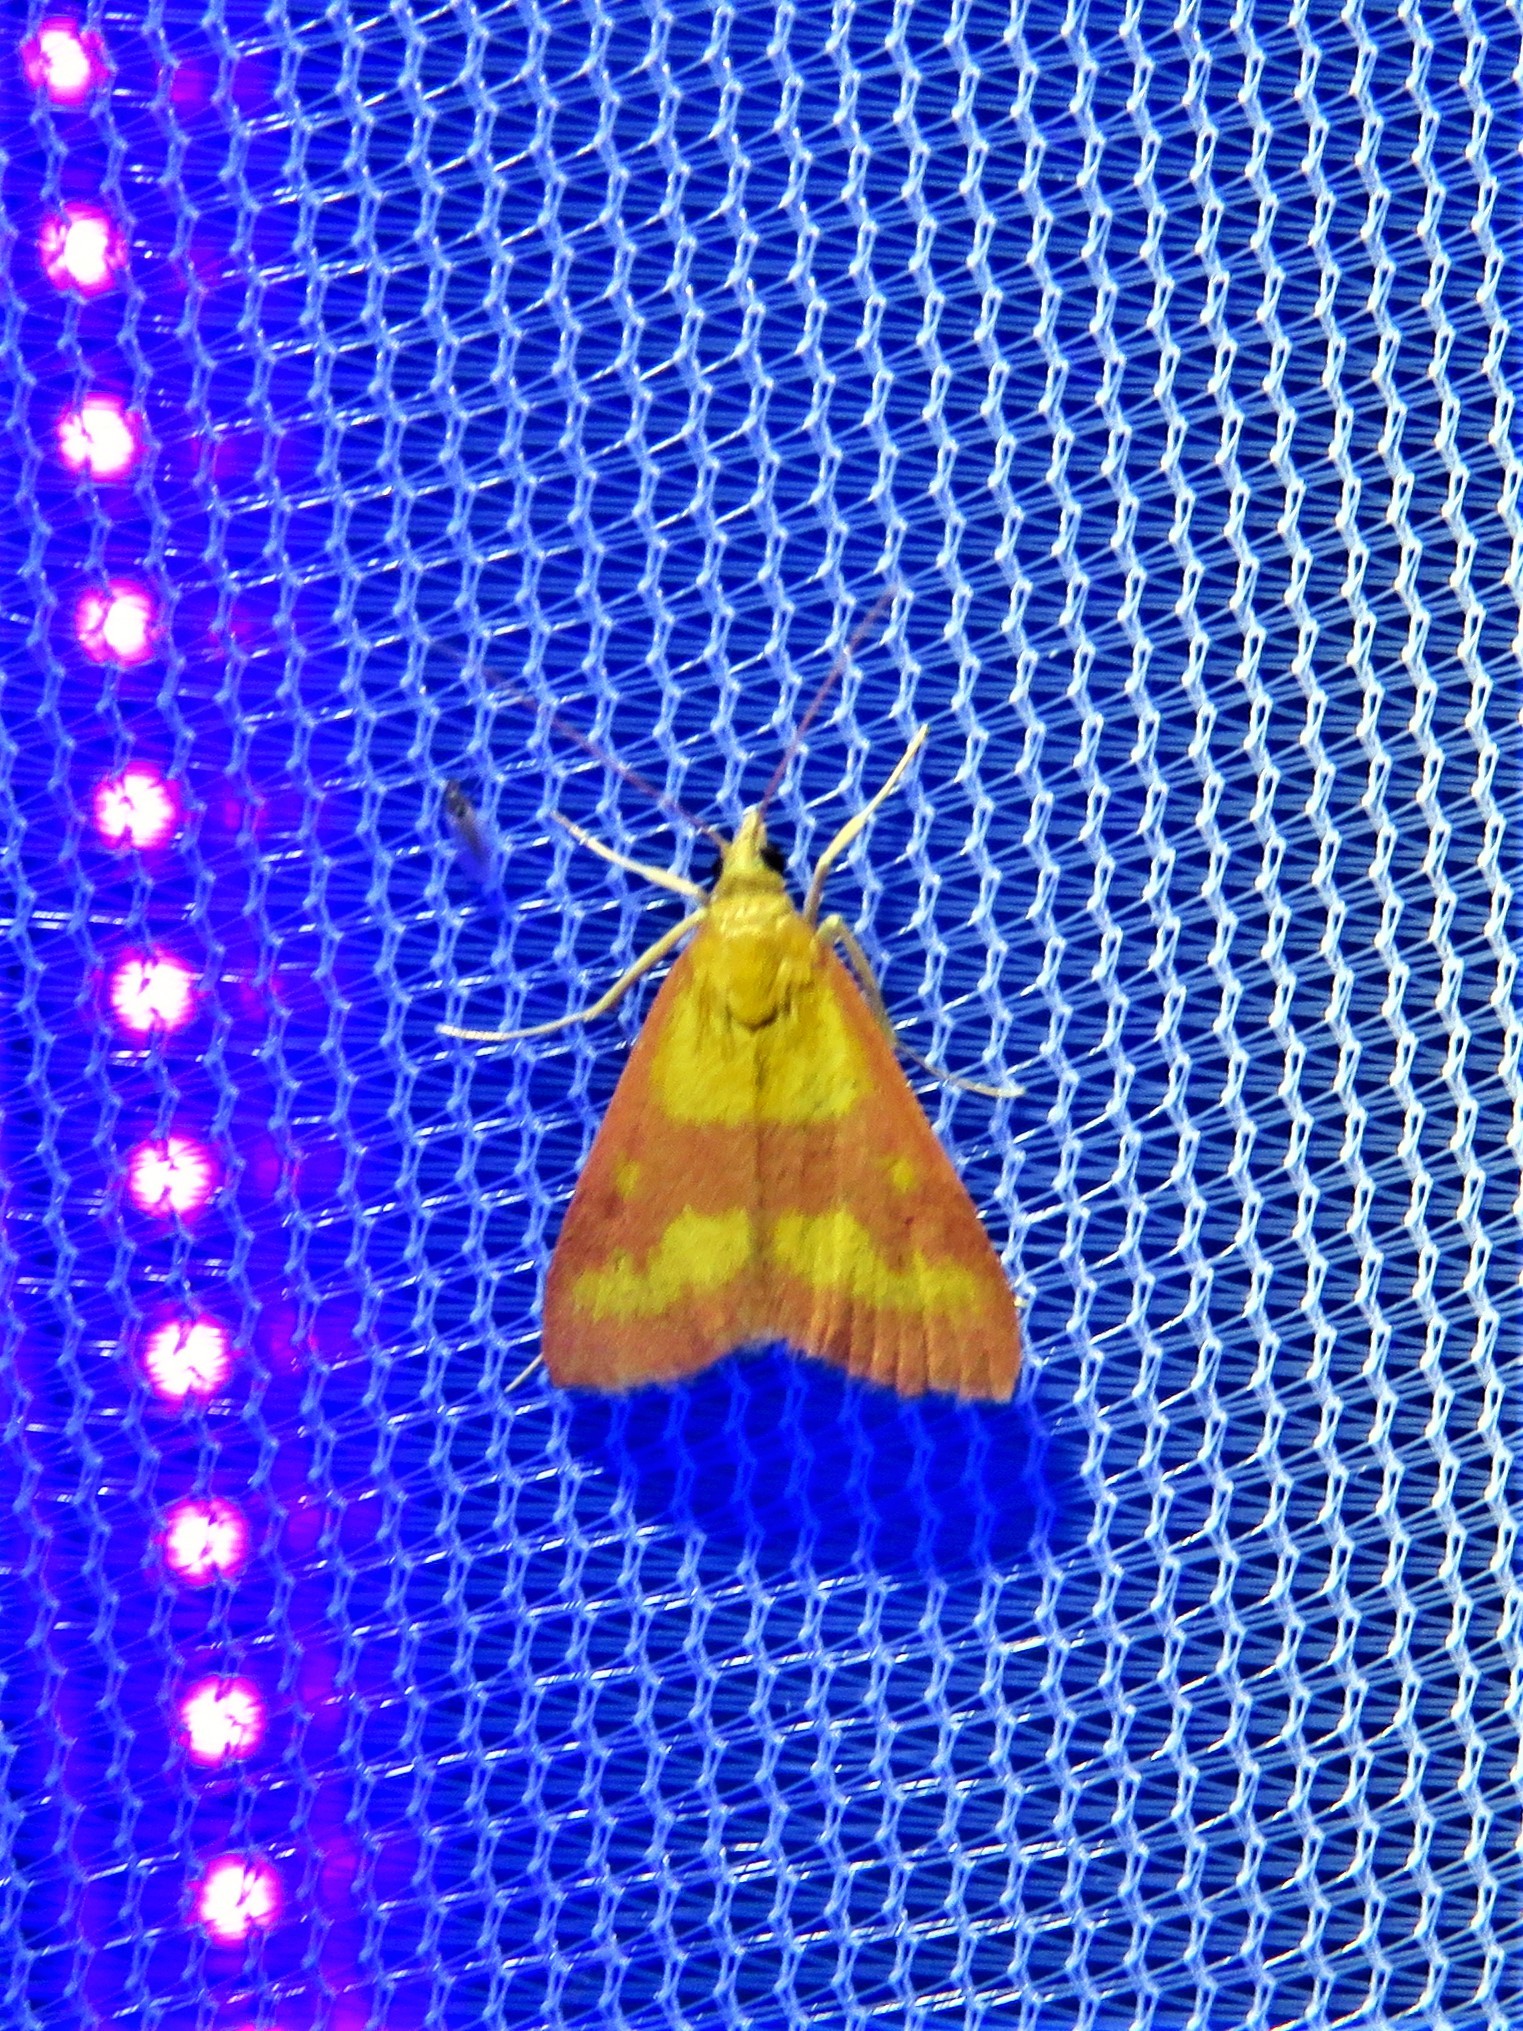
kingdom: Animalia
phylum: Arthropoda
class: Insecta
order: Lepidoptera
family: Crambidae
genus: Pyrausta
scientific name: Pyrausta laticlavia
